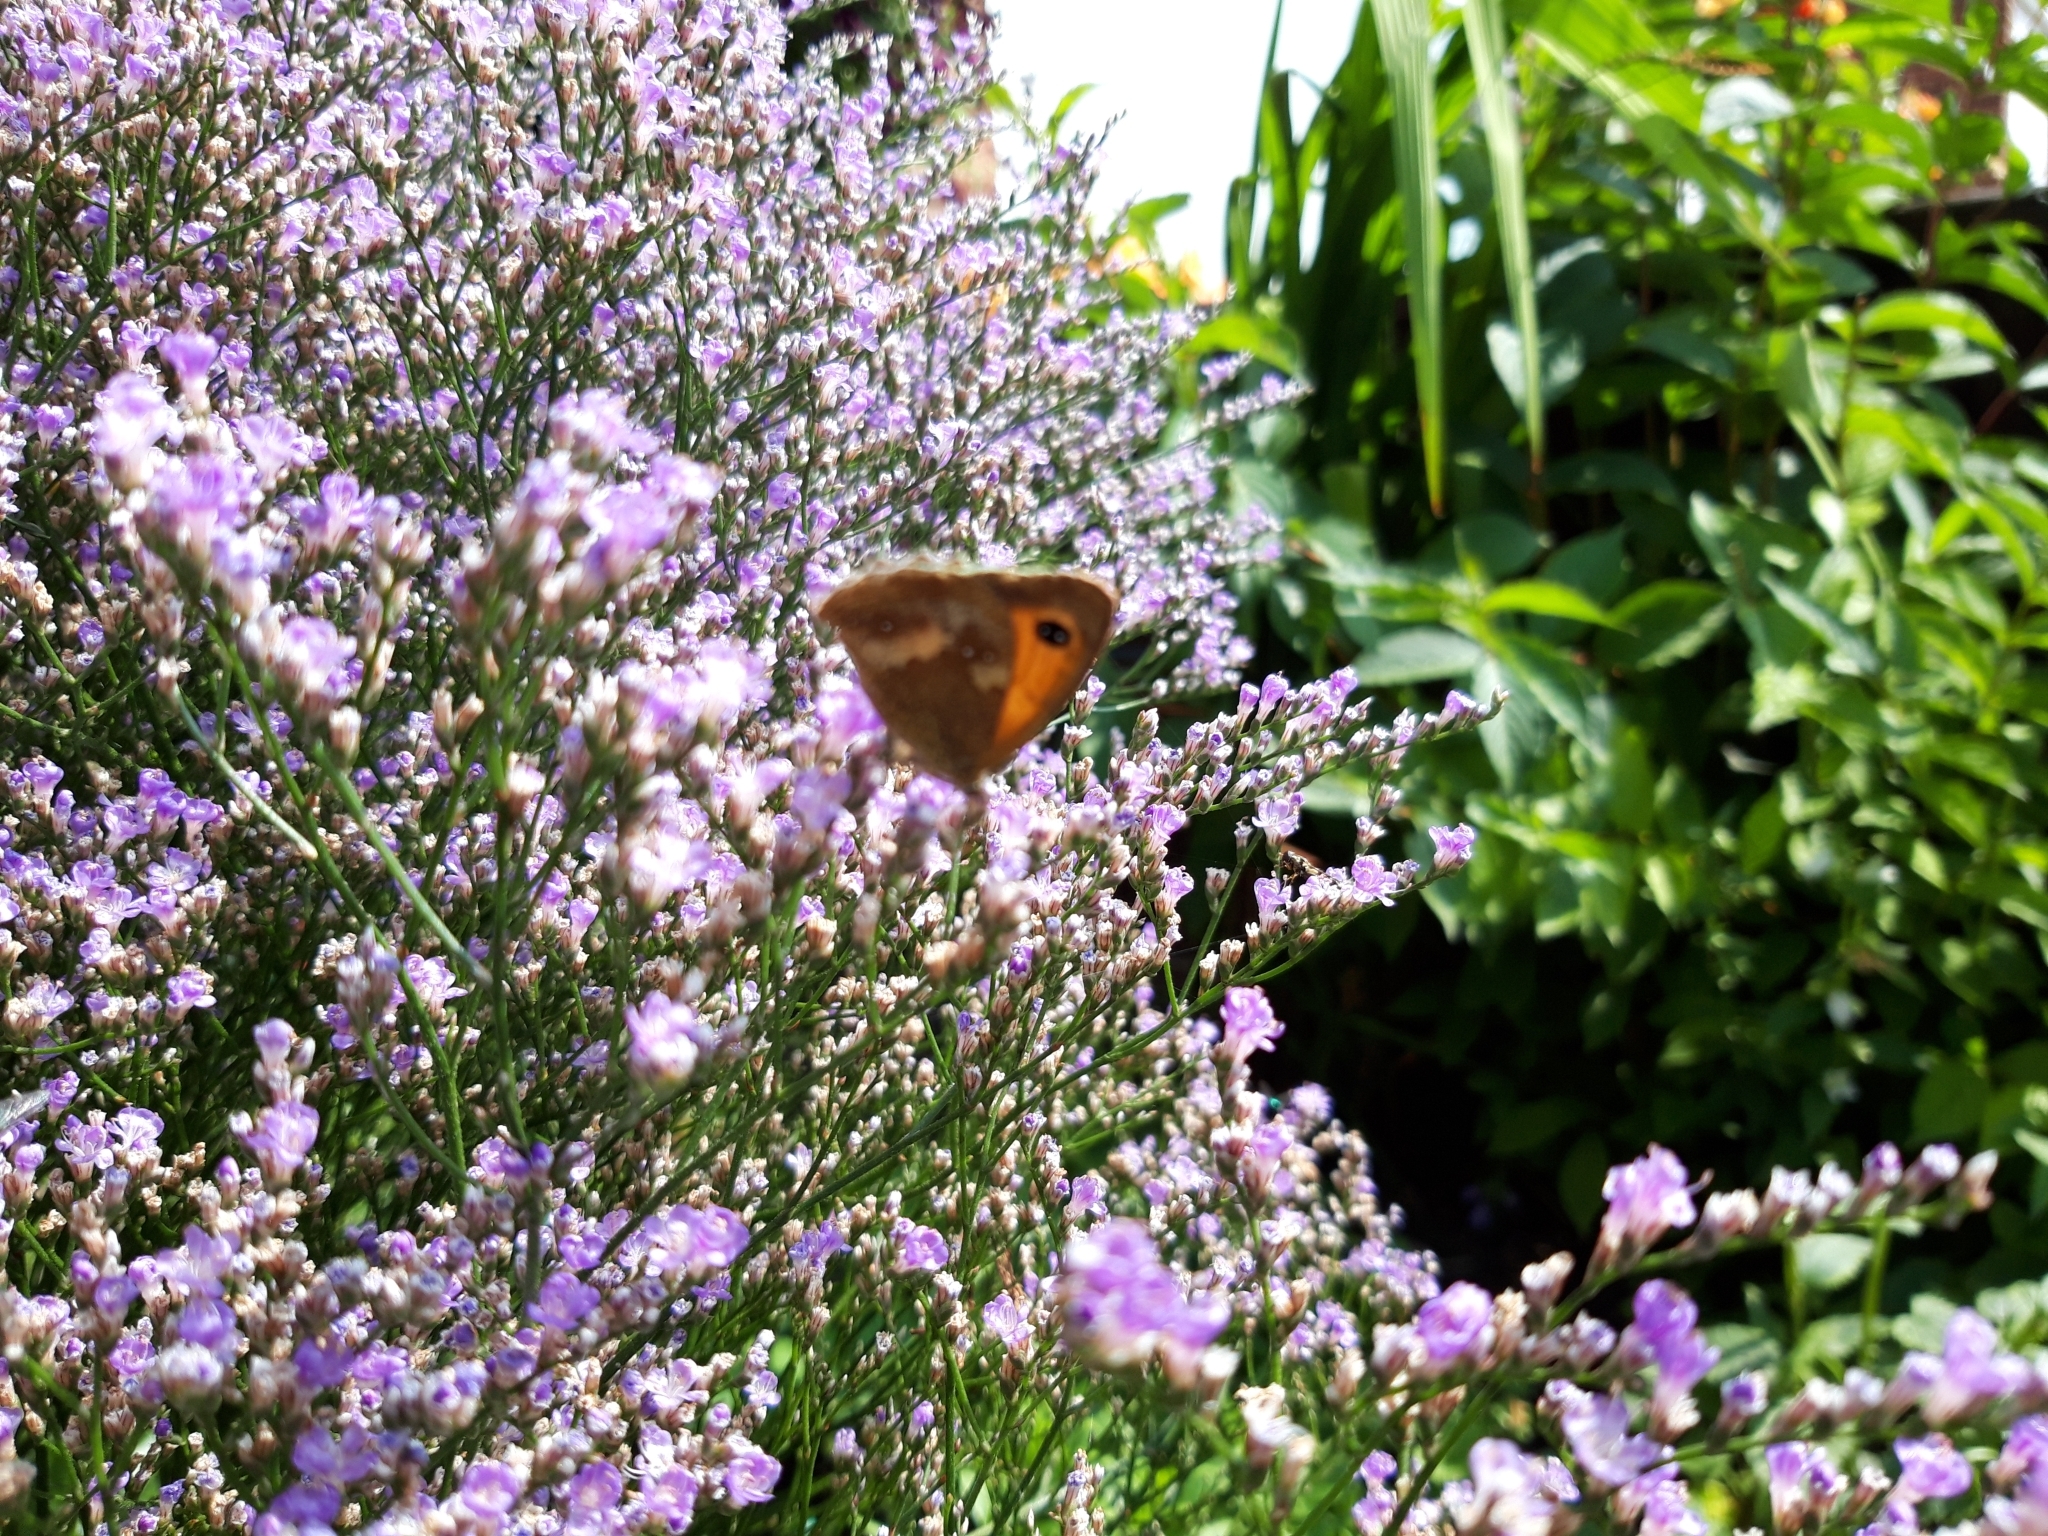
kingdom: Animalia
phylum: Arthropoda
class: Insecta
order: Lepidoptera
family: Nymphalidae
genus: Pyronia
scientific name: Pyronia tithonus
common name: Gatekeeper
